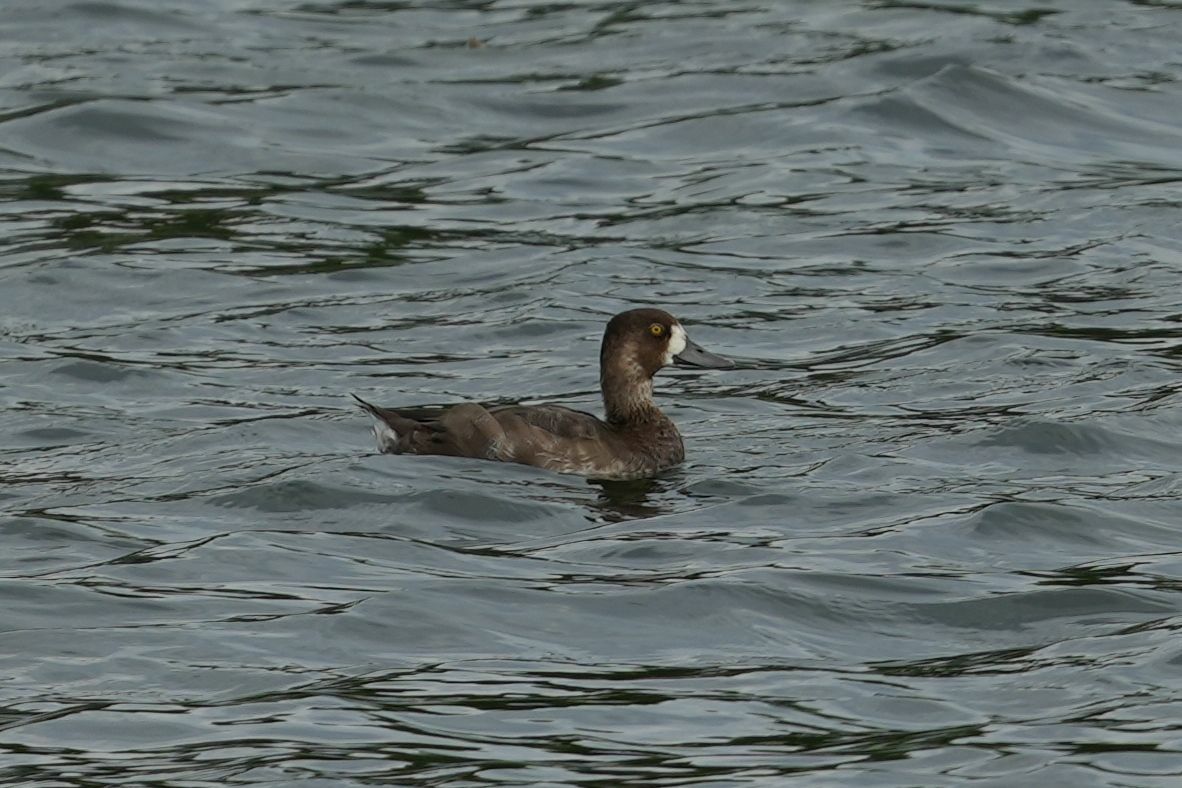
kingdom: Animalia
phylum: Chordata
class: Aves
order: Anseriformes
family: Anatidae
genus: Aythya
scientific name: Aythya affinis
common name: Lesser scaup
